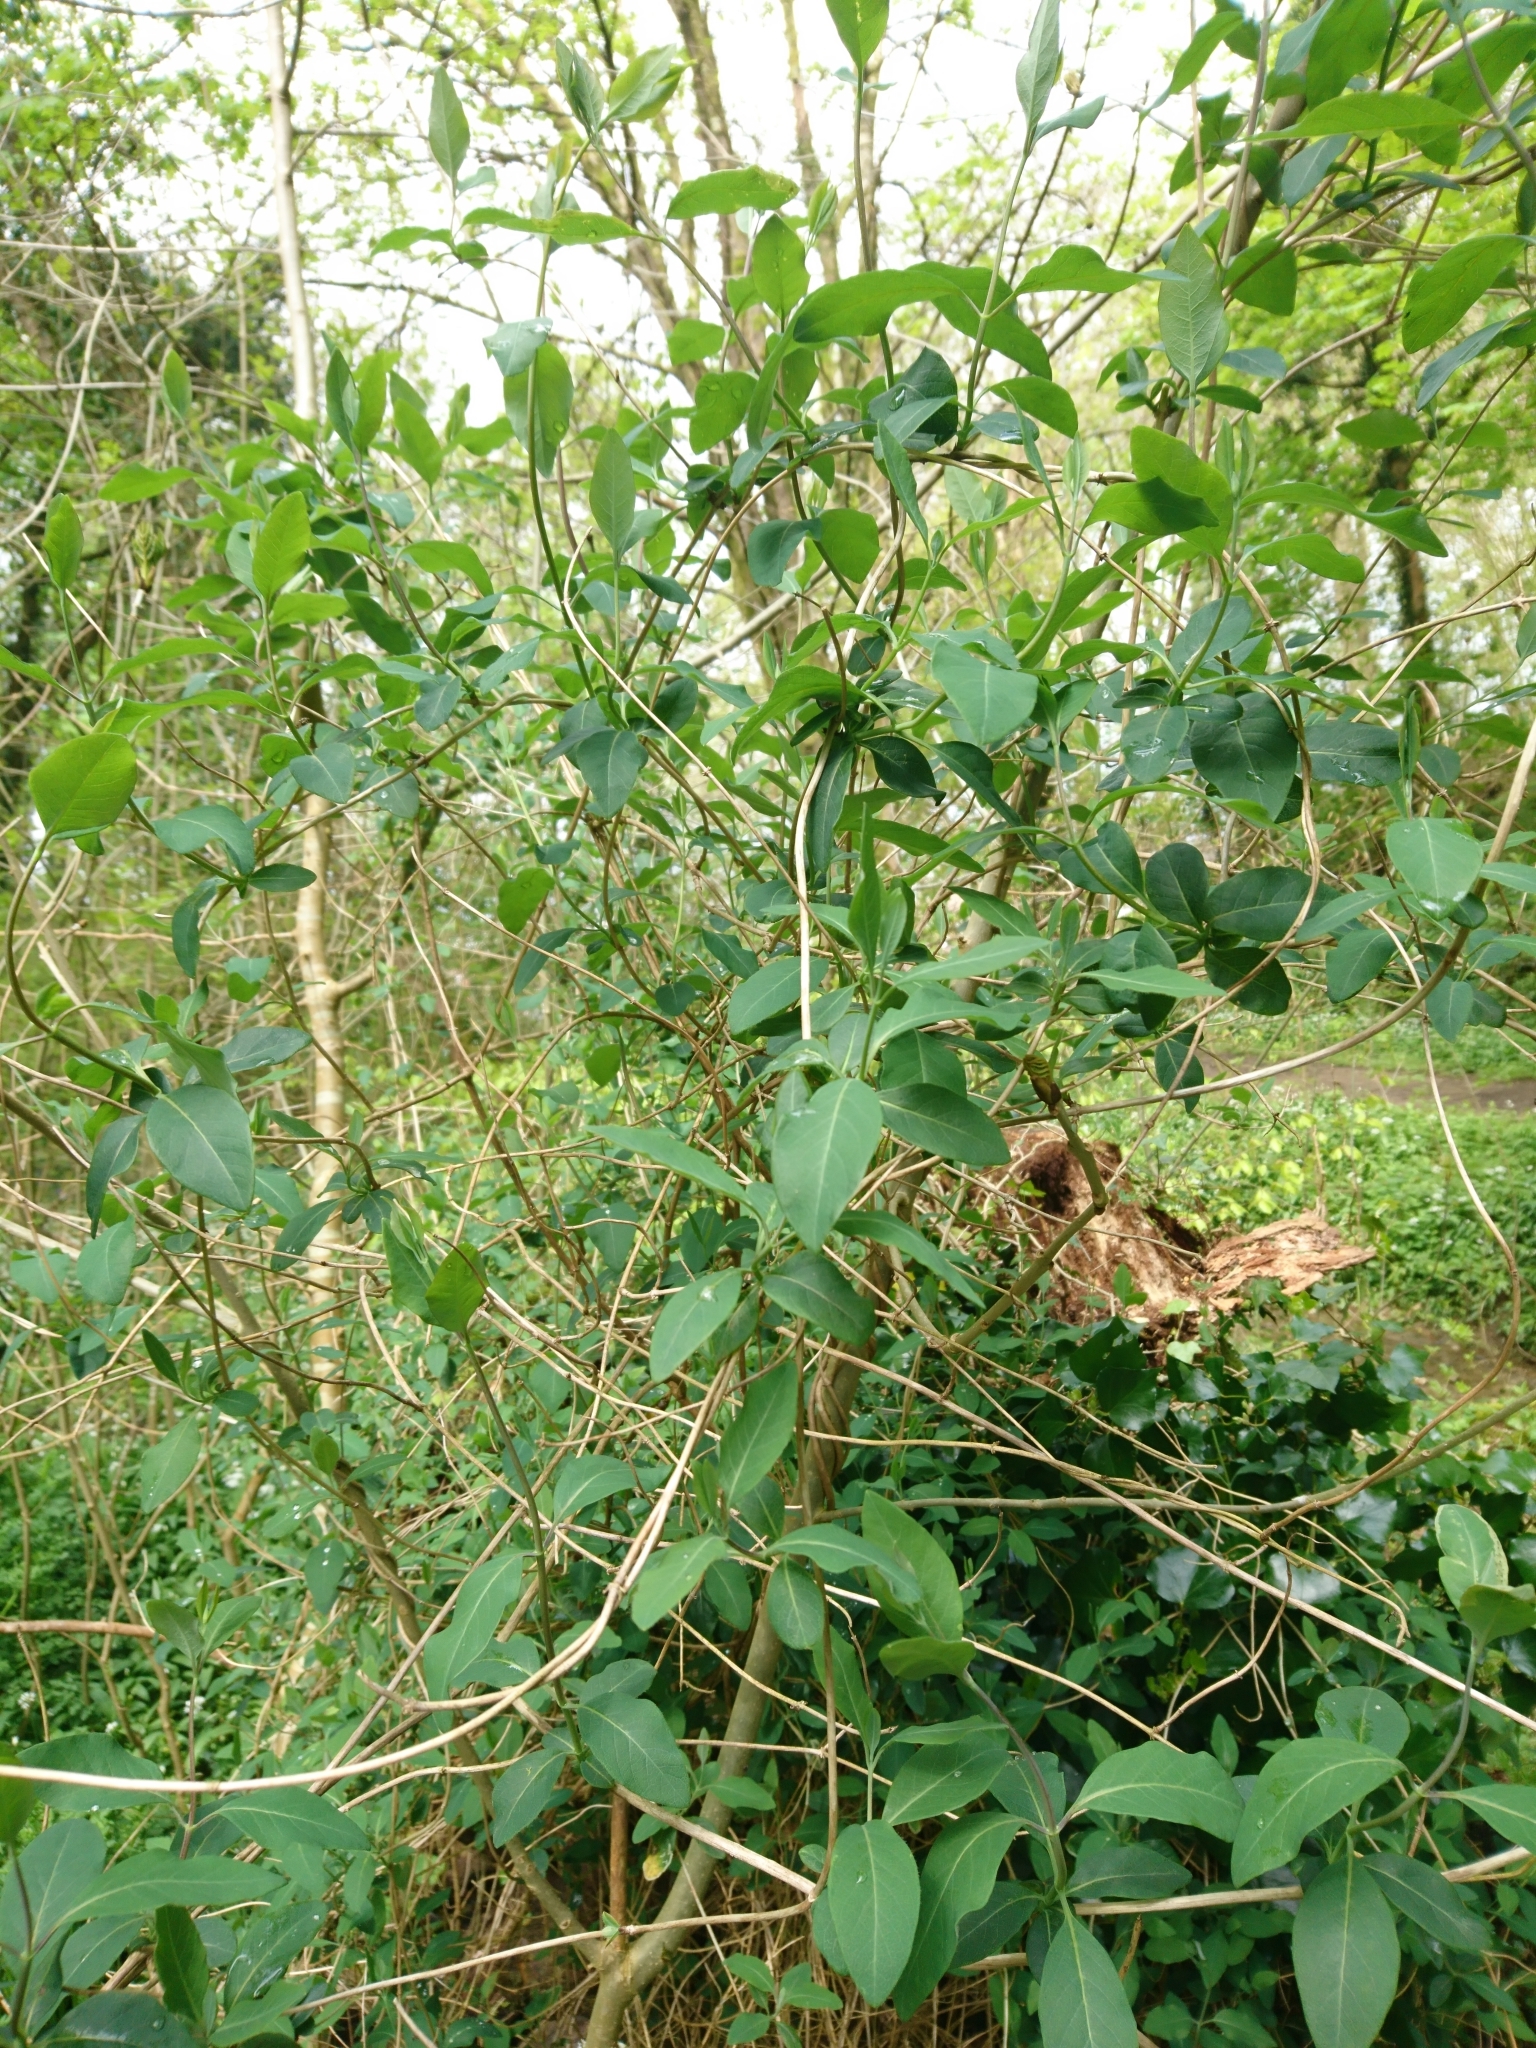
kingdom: Plantae
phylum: Tracheophyta
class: Magnoliopsida
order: Dipsacales
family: Caprifoliaceae
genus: Lonicera
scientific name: Lonicera periclymenum
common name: European honeysuckle
